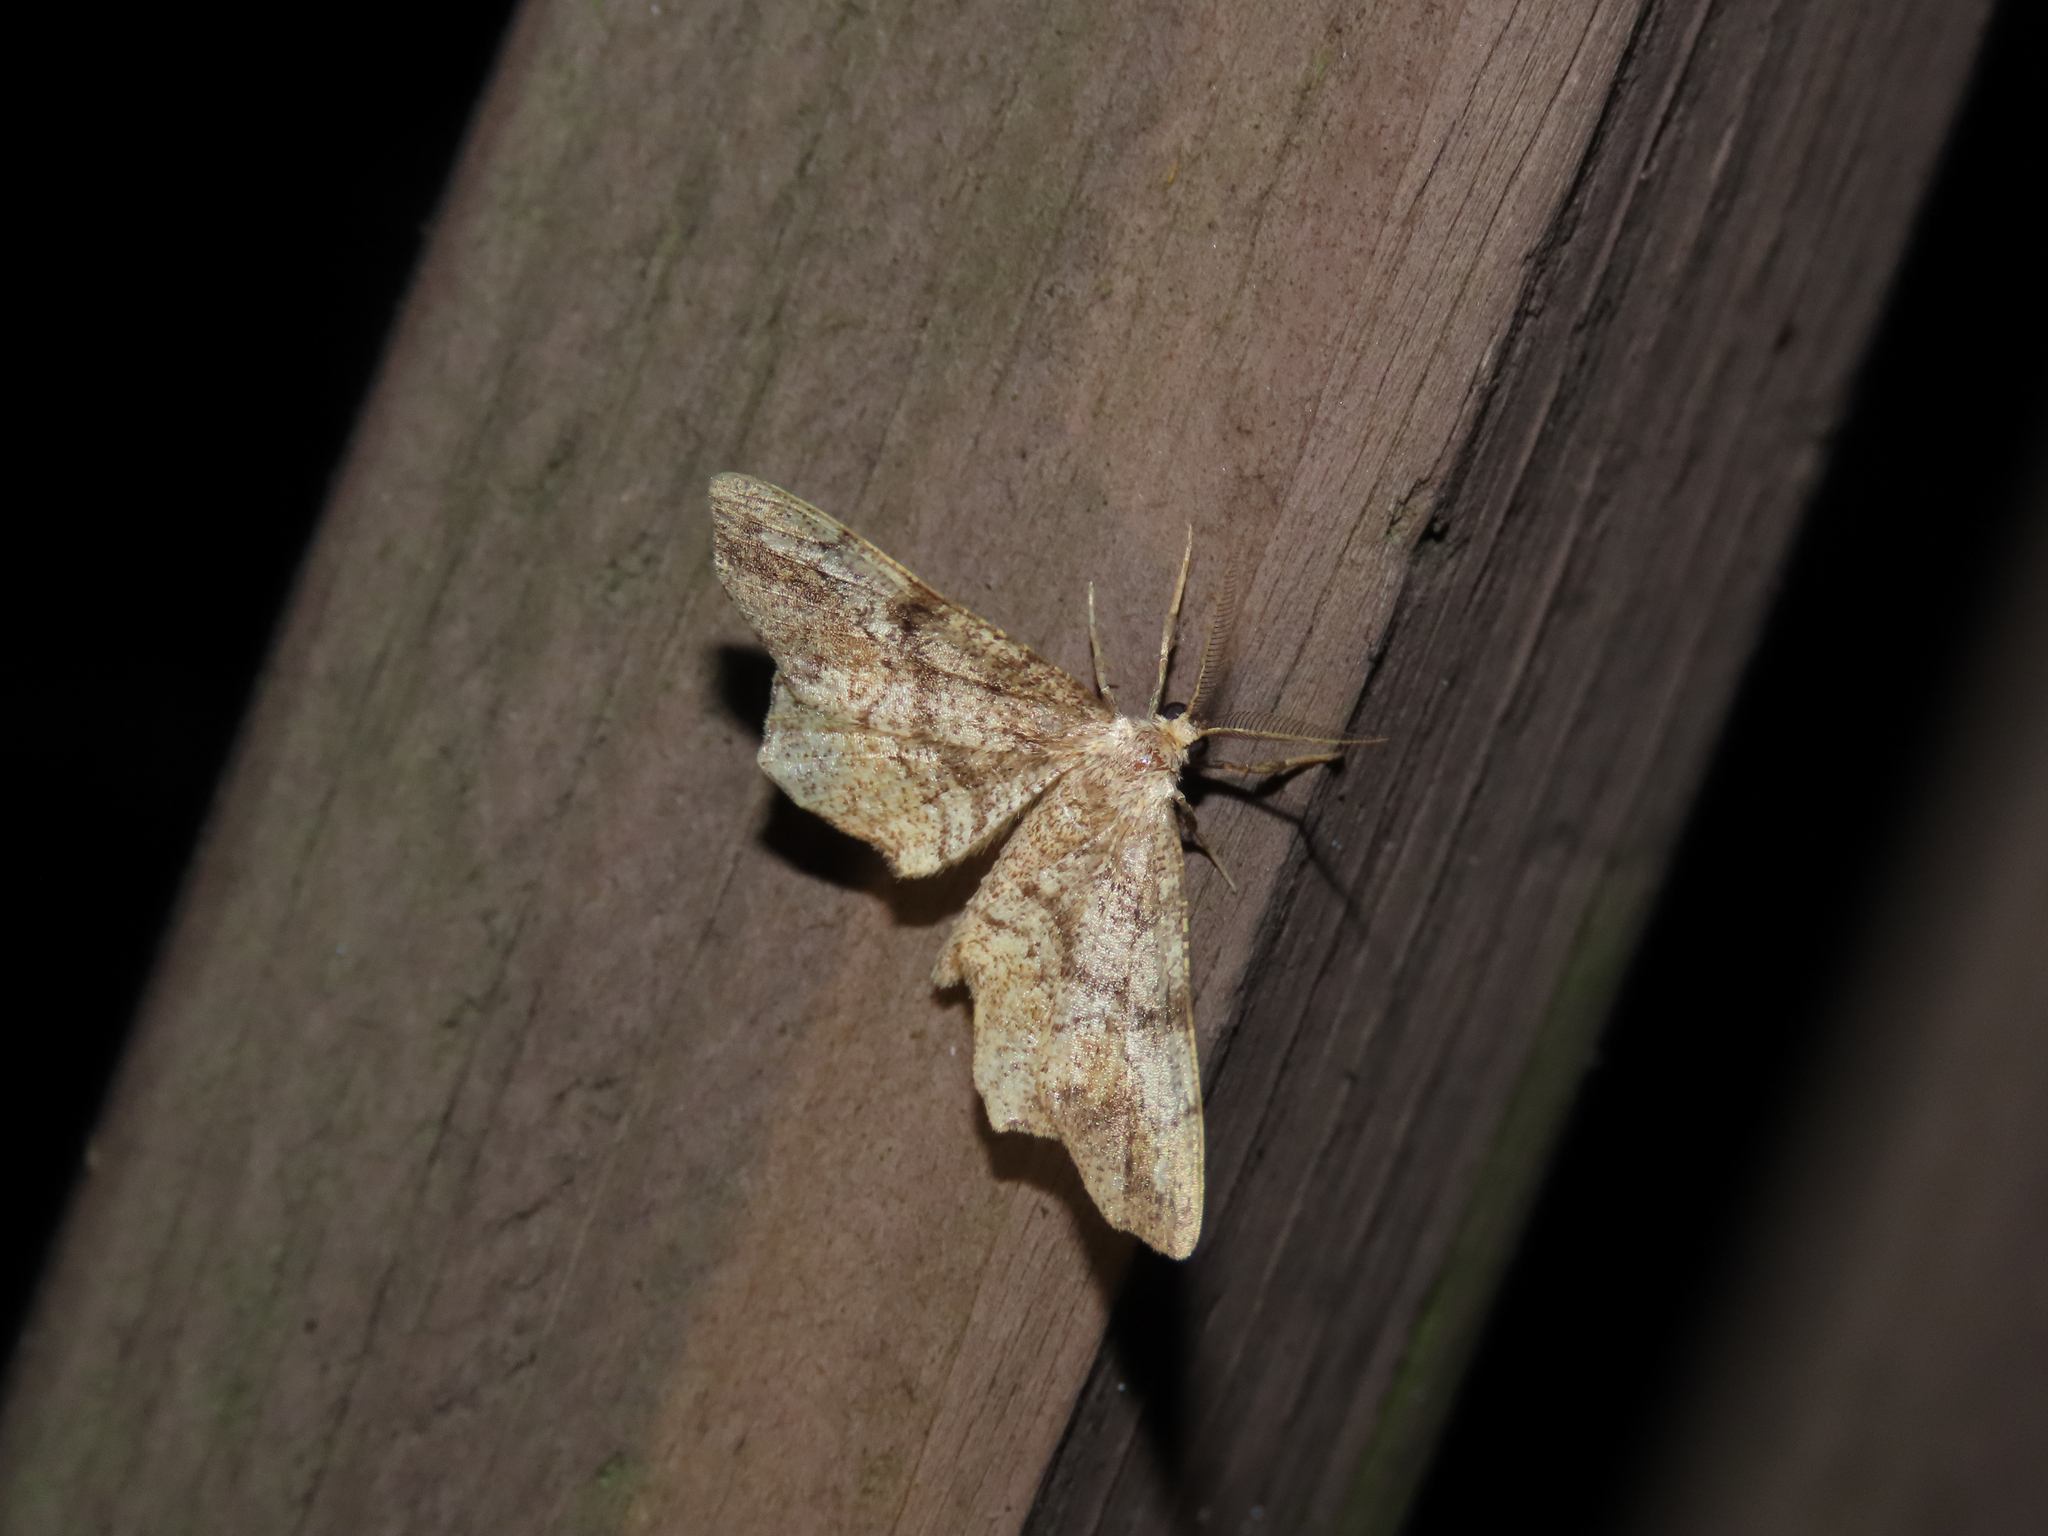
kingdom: Animalia
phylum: Arthropoda
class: Insecta
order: Lepidoptera
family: Geometridae
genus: Hypagyrtis
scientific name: Hypagyrtis unipunctata
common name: One-spotted variant
